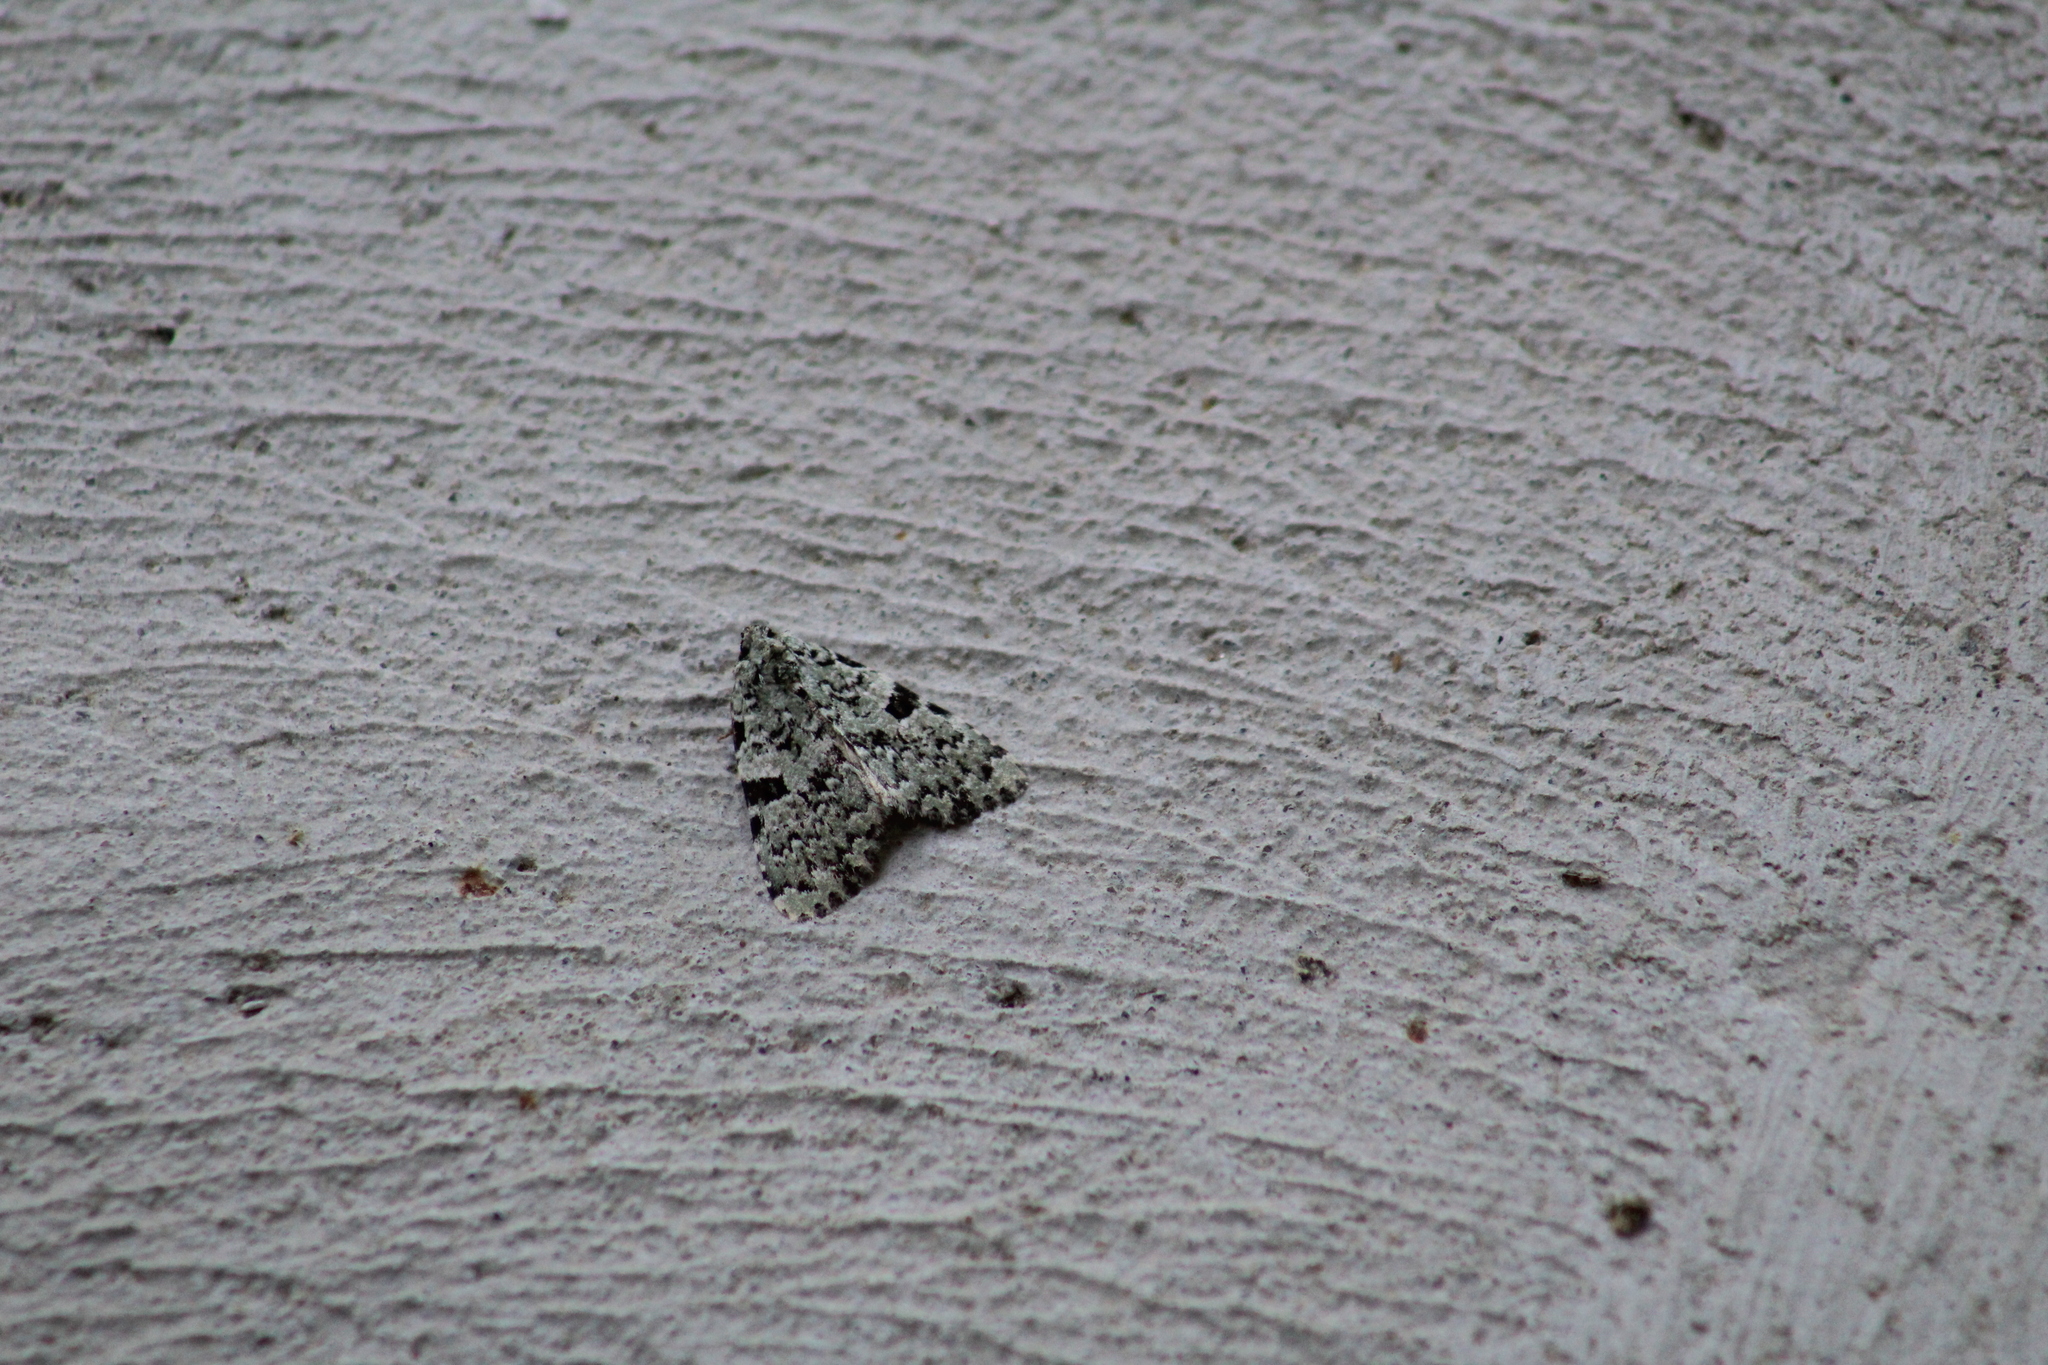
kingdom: Animalia
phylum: Arthropoda
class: Insecta
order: Lepidoptera
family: Noctuidae
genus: Leuconycta
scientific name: Leuconycta diphteroides
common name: Green leuconycta moth
